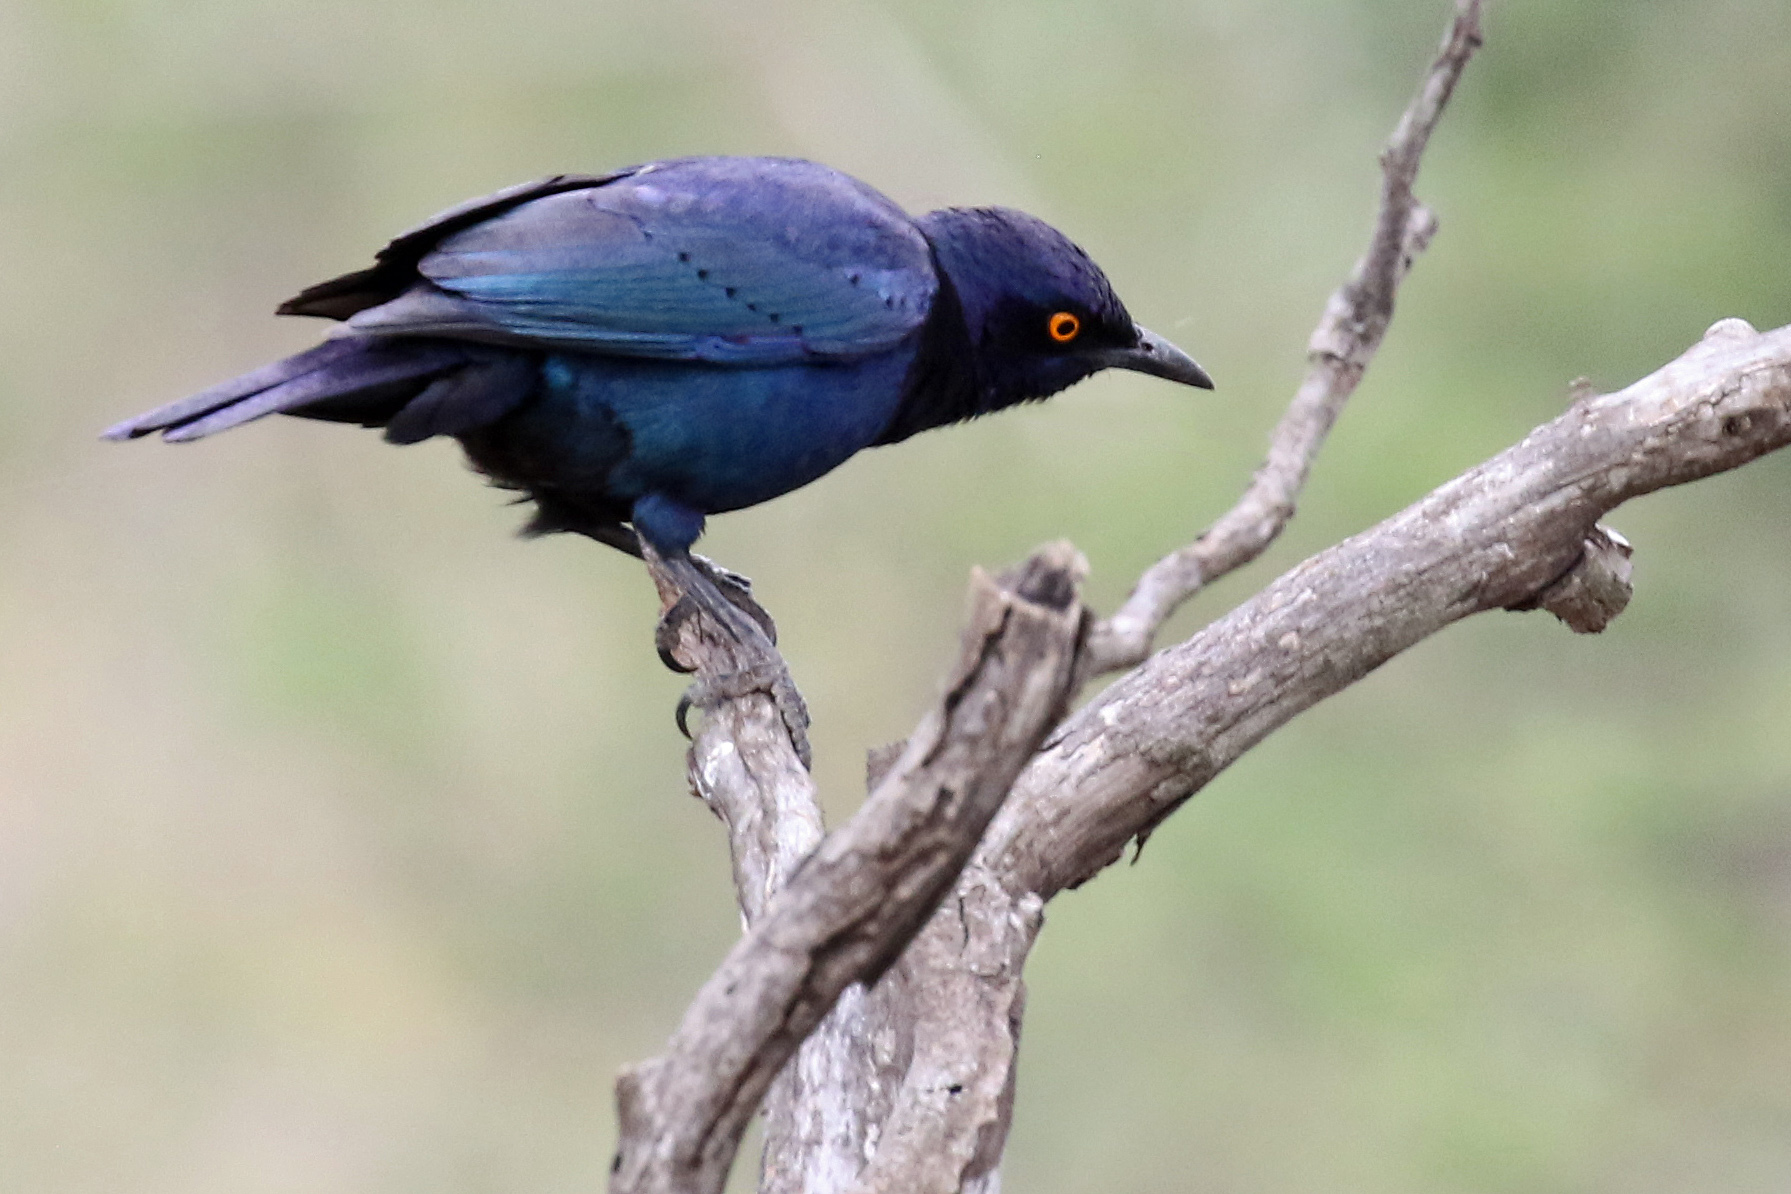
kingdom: Animalia
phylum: Chordata
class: Aves
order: Passeriformes
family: Sturnidae
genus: Lamprotornis
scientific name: Lamprotornis nitens
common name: Cape starling
